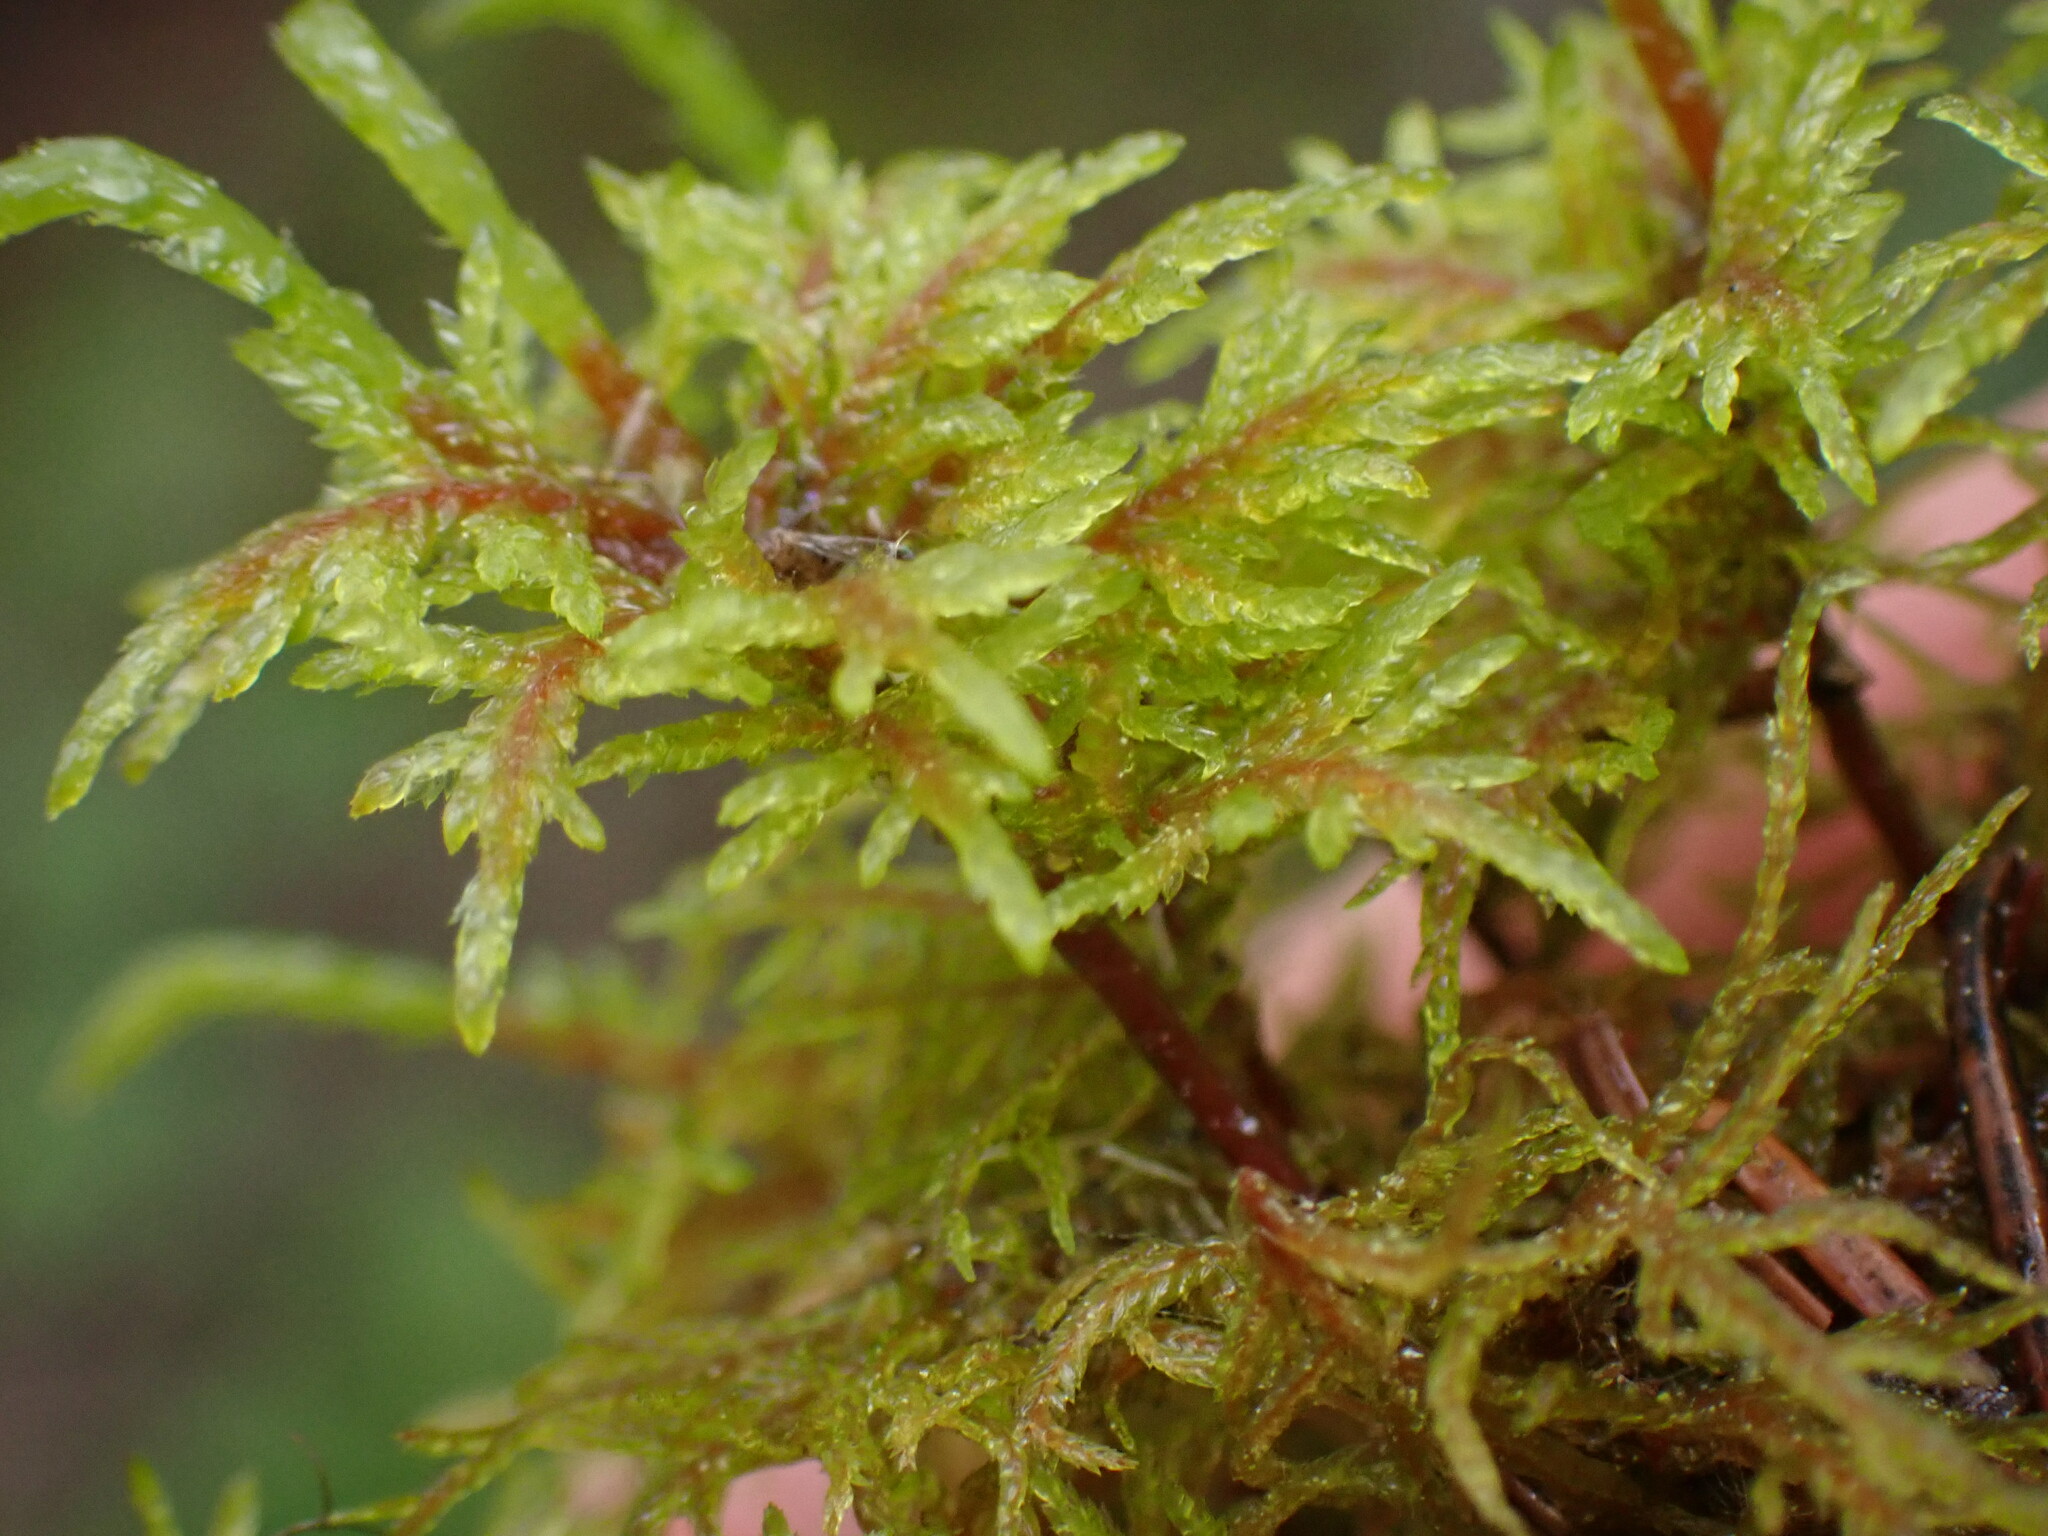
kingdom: Plantae
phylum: Bryophyta
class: Bryopsida
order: Hypnales
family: Hylocomiaceae
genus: Hylocomium
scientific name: Hylocomium splendens
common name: Stairstep moss
